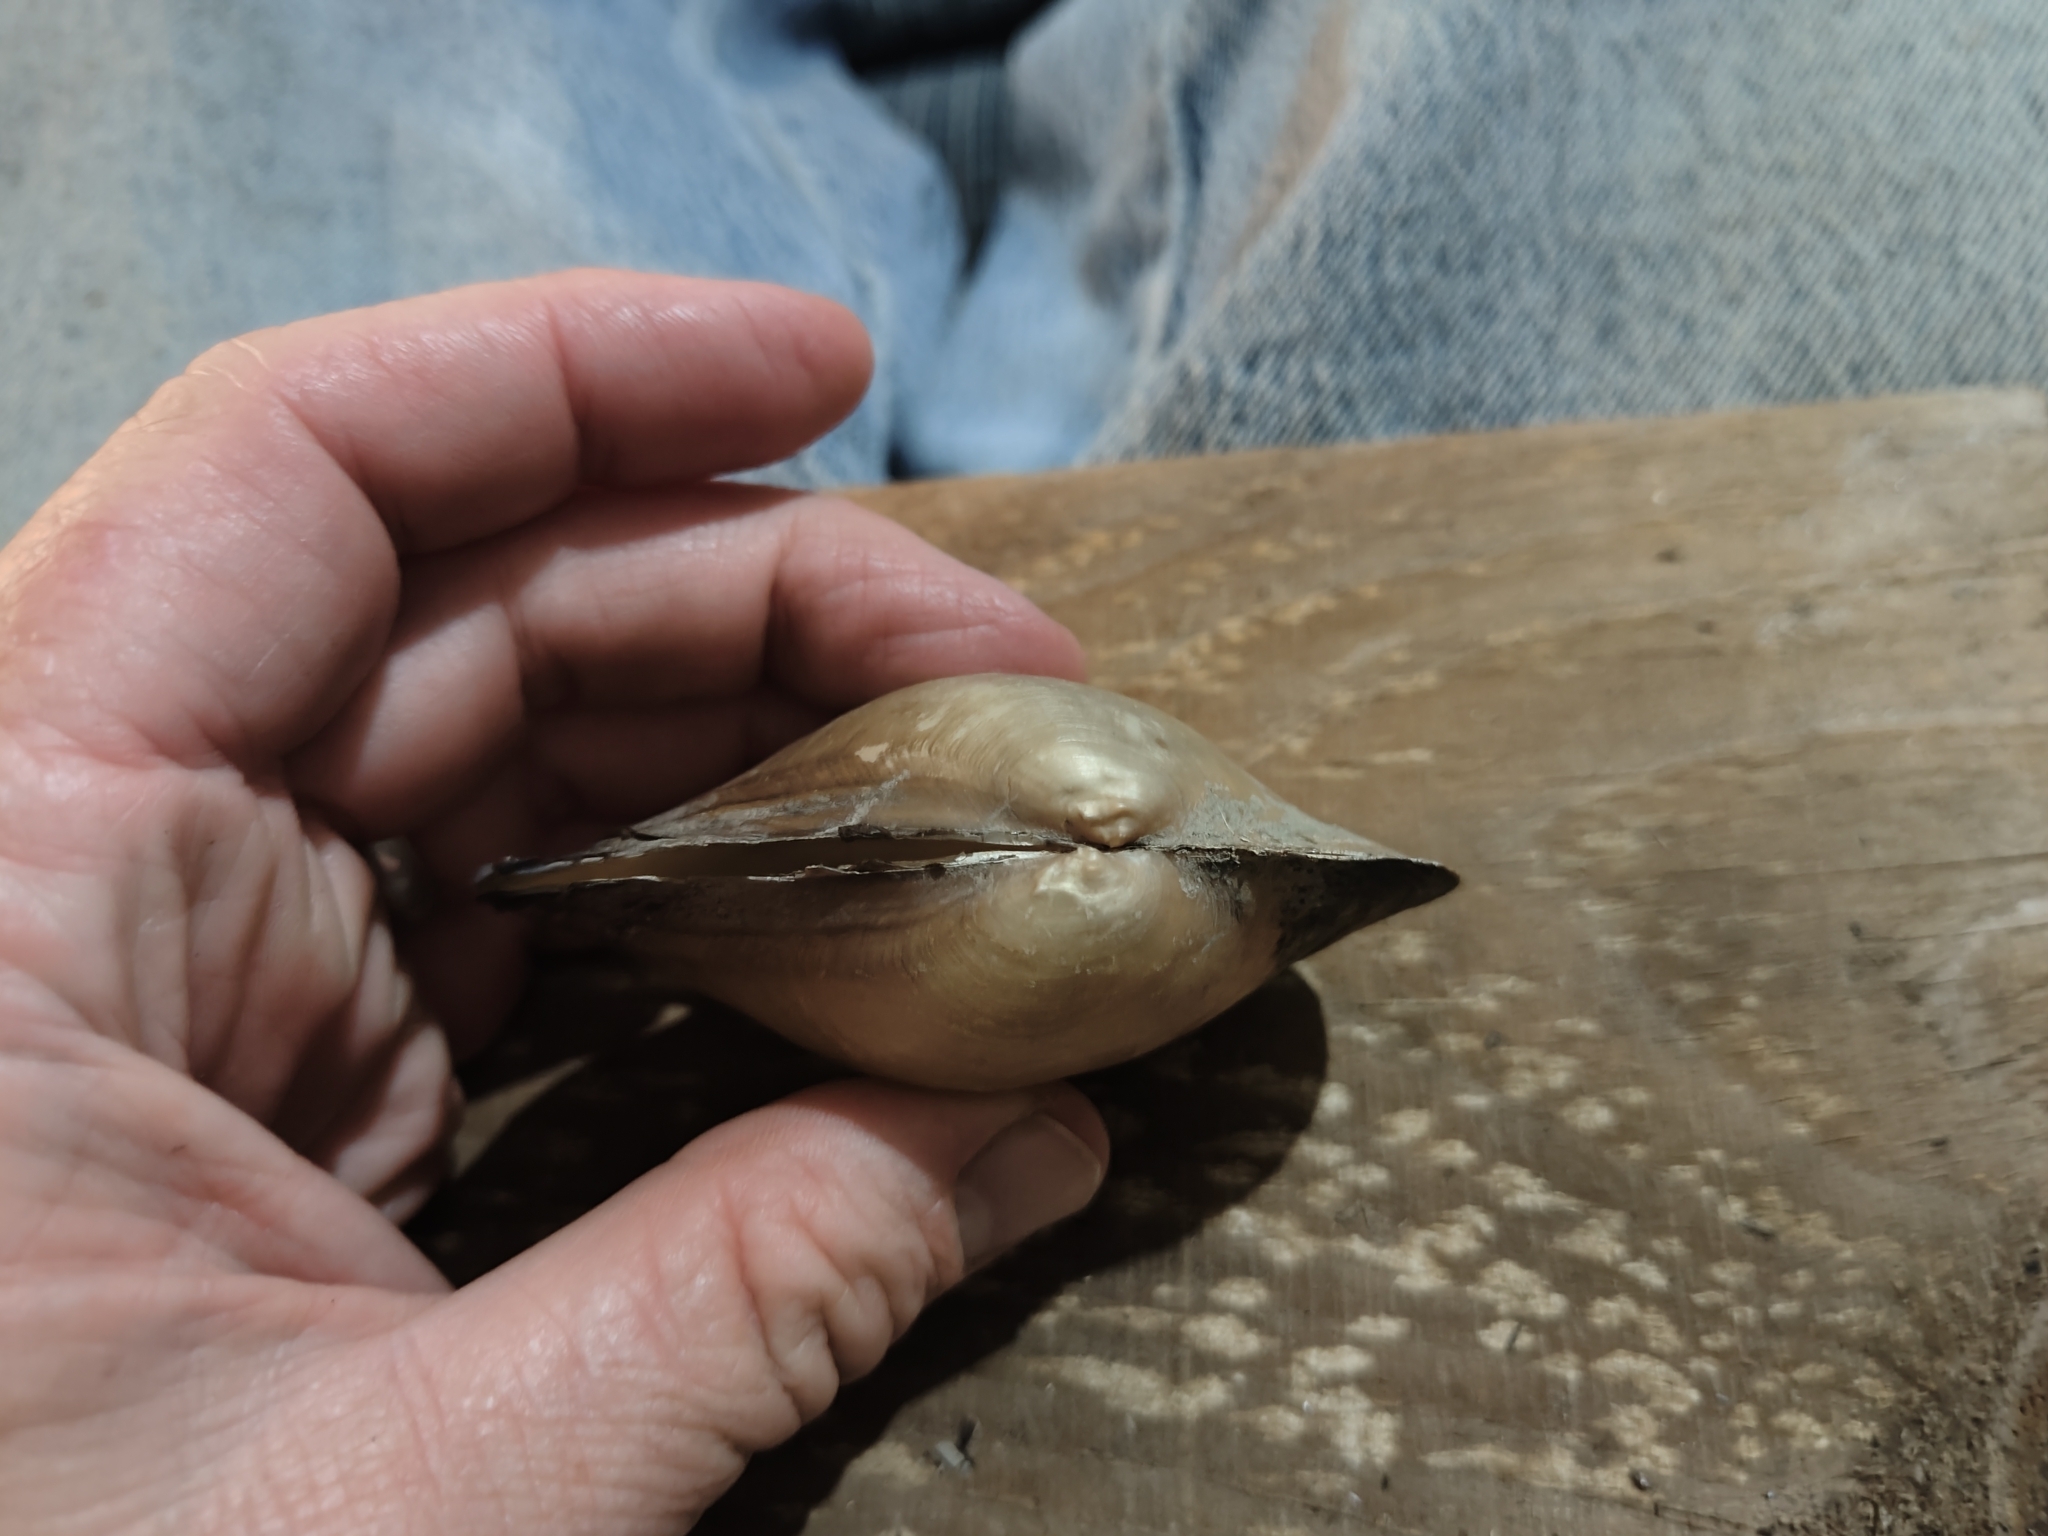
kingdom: Animalia
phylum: Mollusca
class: Bivalvia
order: Unionida
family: Unionidae
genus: Pyganodon
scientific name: Pyganodon grandis
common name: Giant floater
